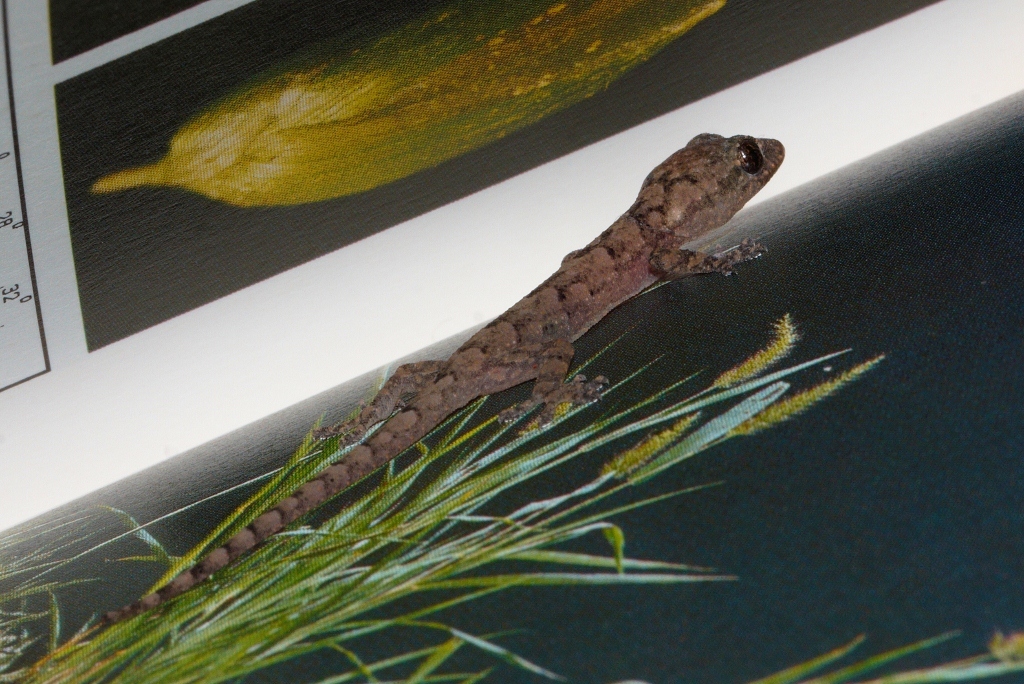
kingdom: Animalia
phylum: Chordata
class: Squamata
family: Gekkonidae
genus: Hemidactylus
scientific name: Hemidactylus mabouia
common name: House gecko
